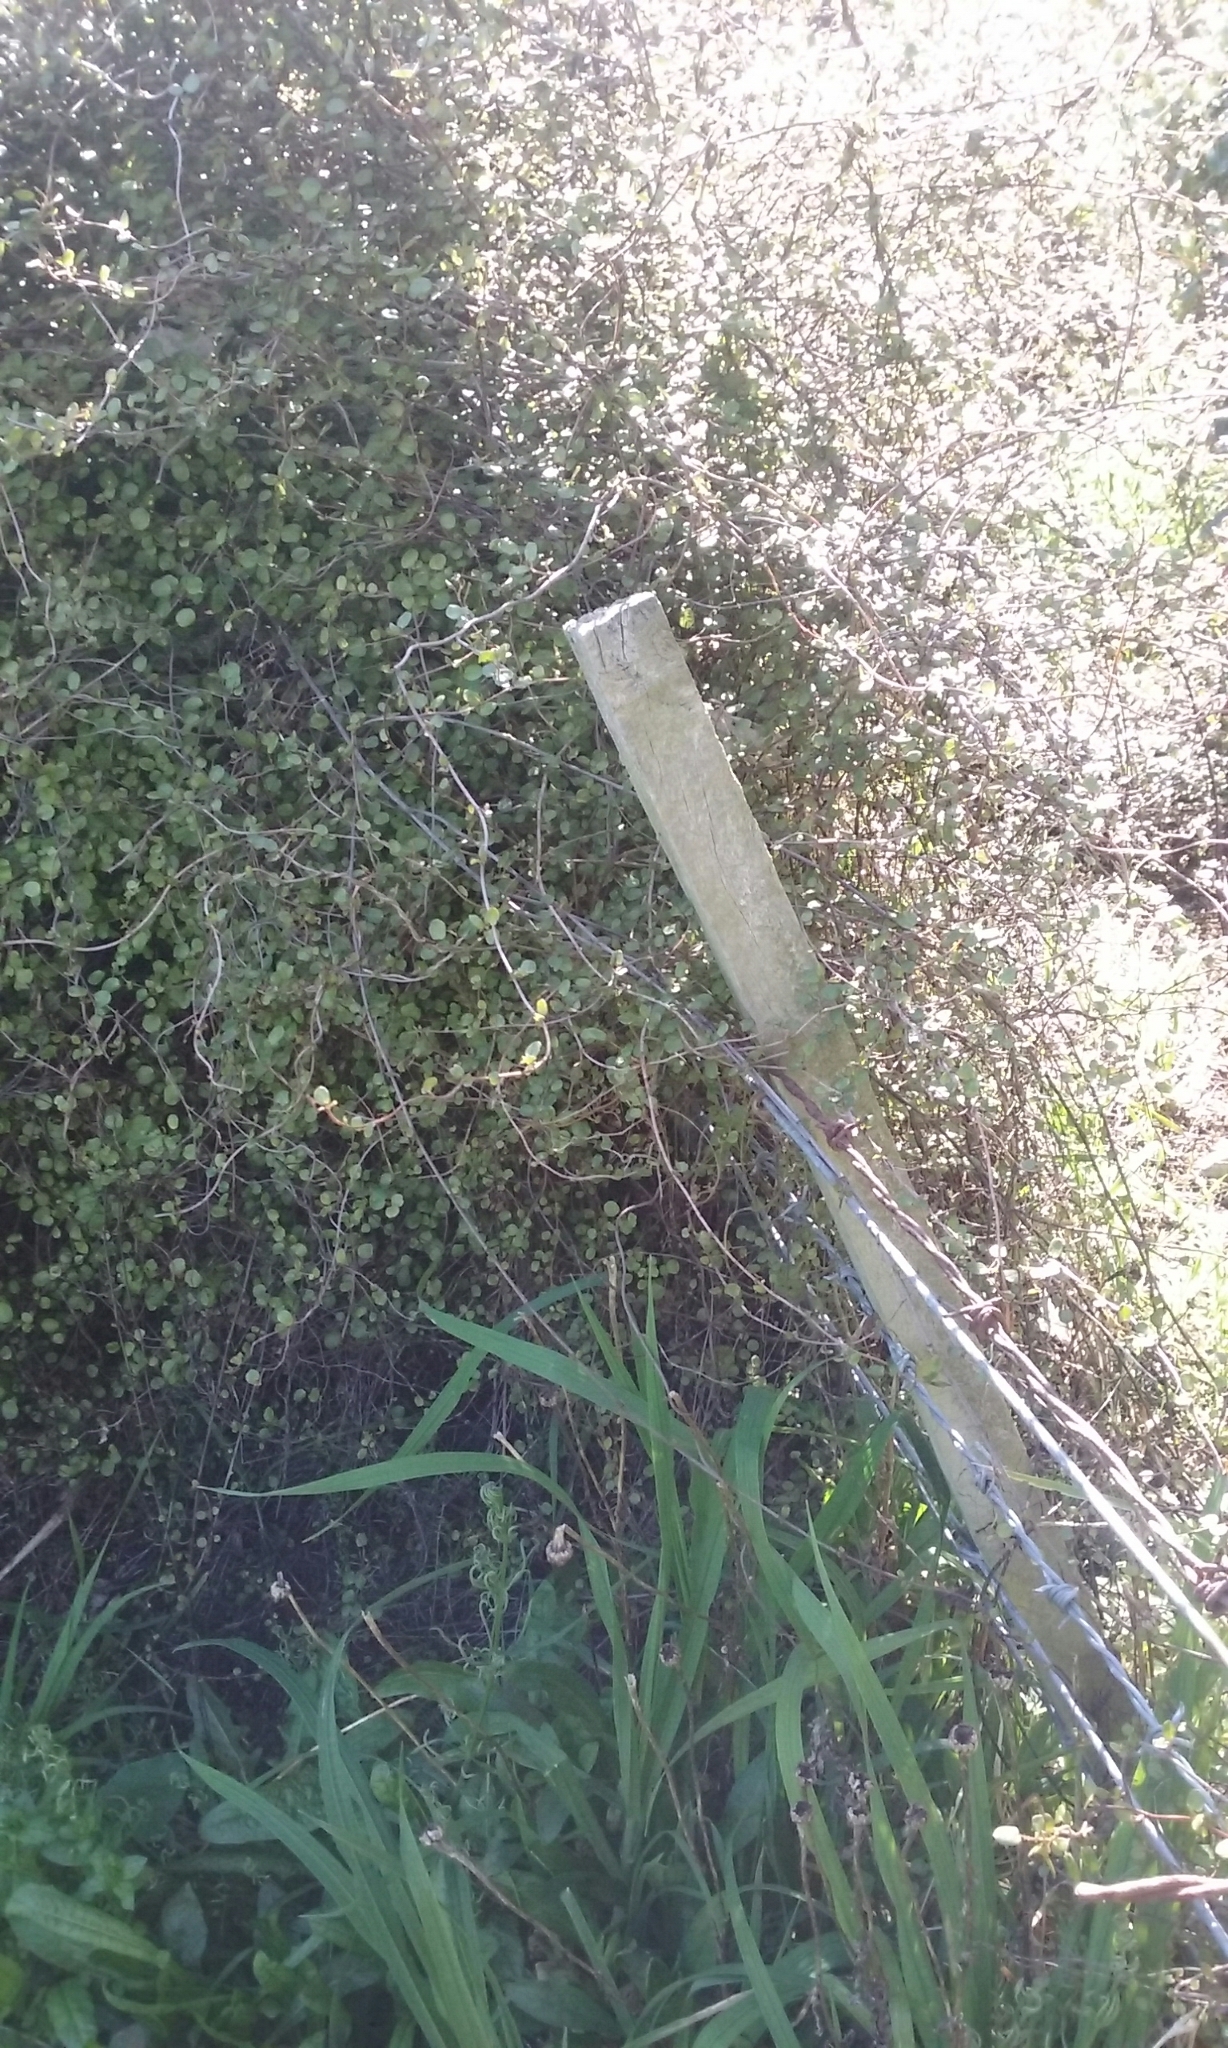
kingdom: Plantae
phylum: Tracheophyta
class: Magnoliopsida
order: Caryophyllales
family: Polygonaceae
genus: Muehlenbeckia
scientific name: Muehlenbeckia complexa
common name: Wireplant
